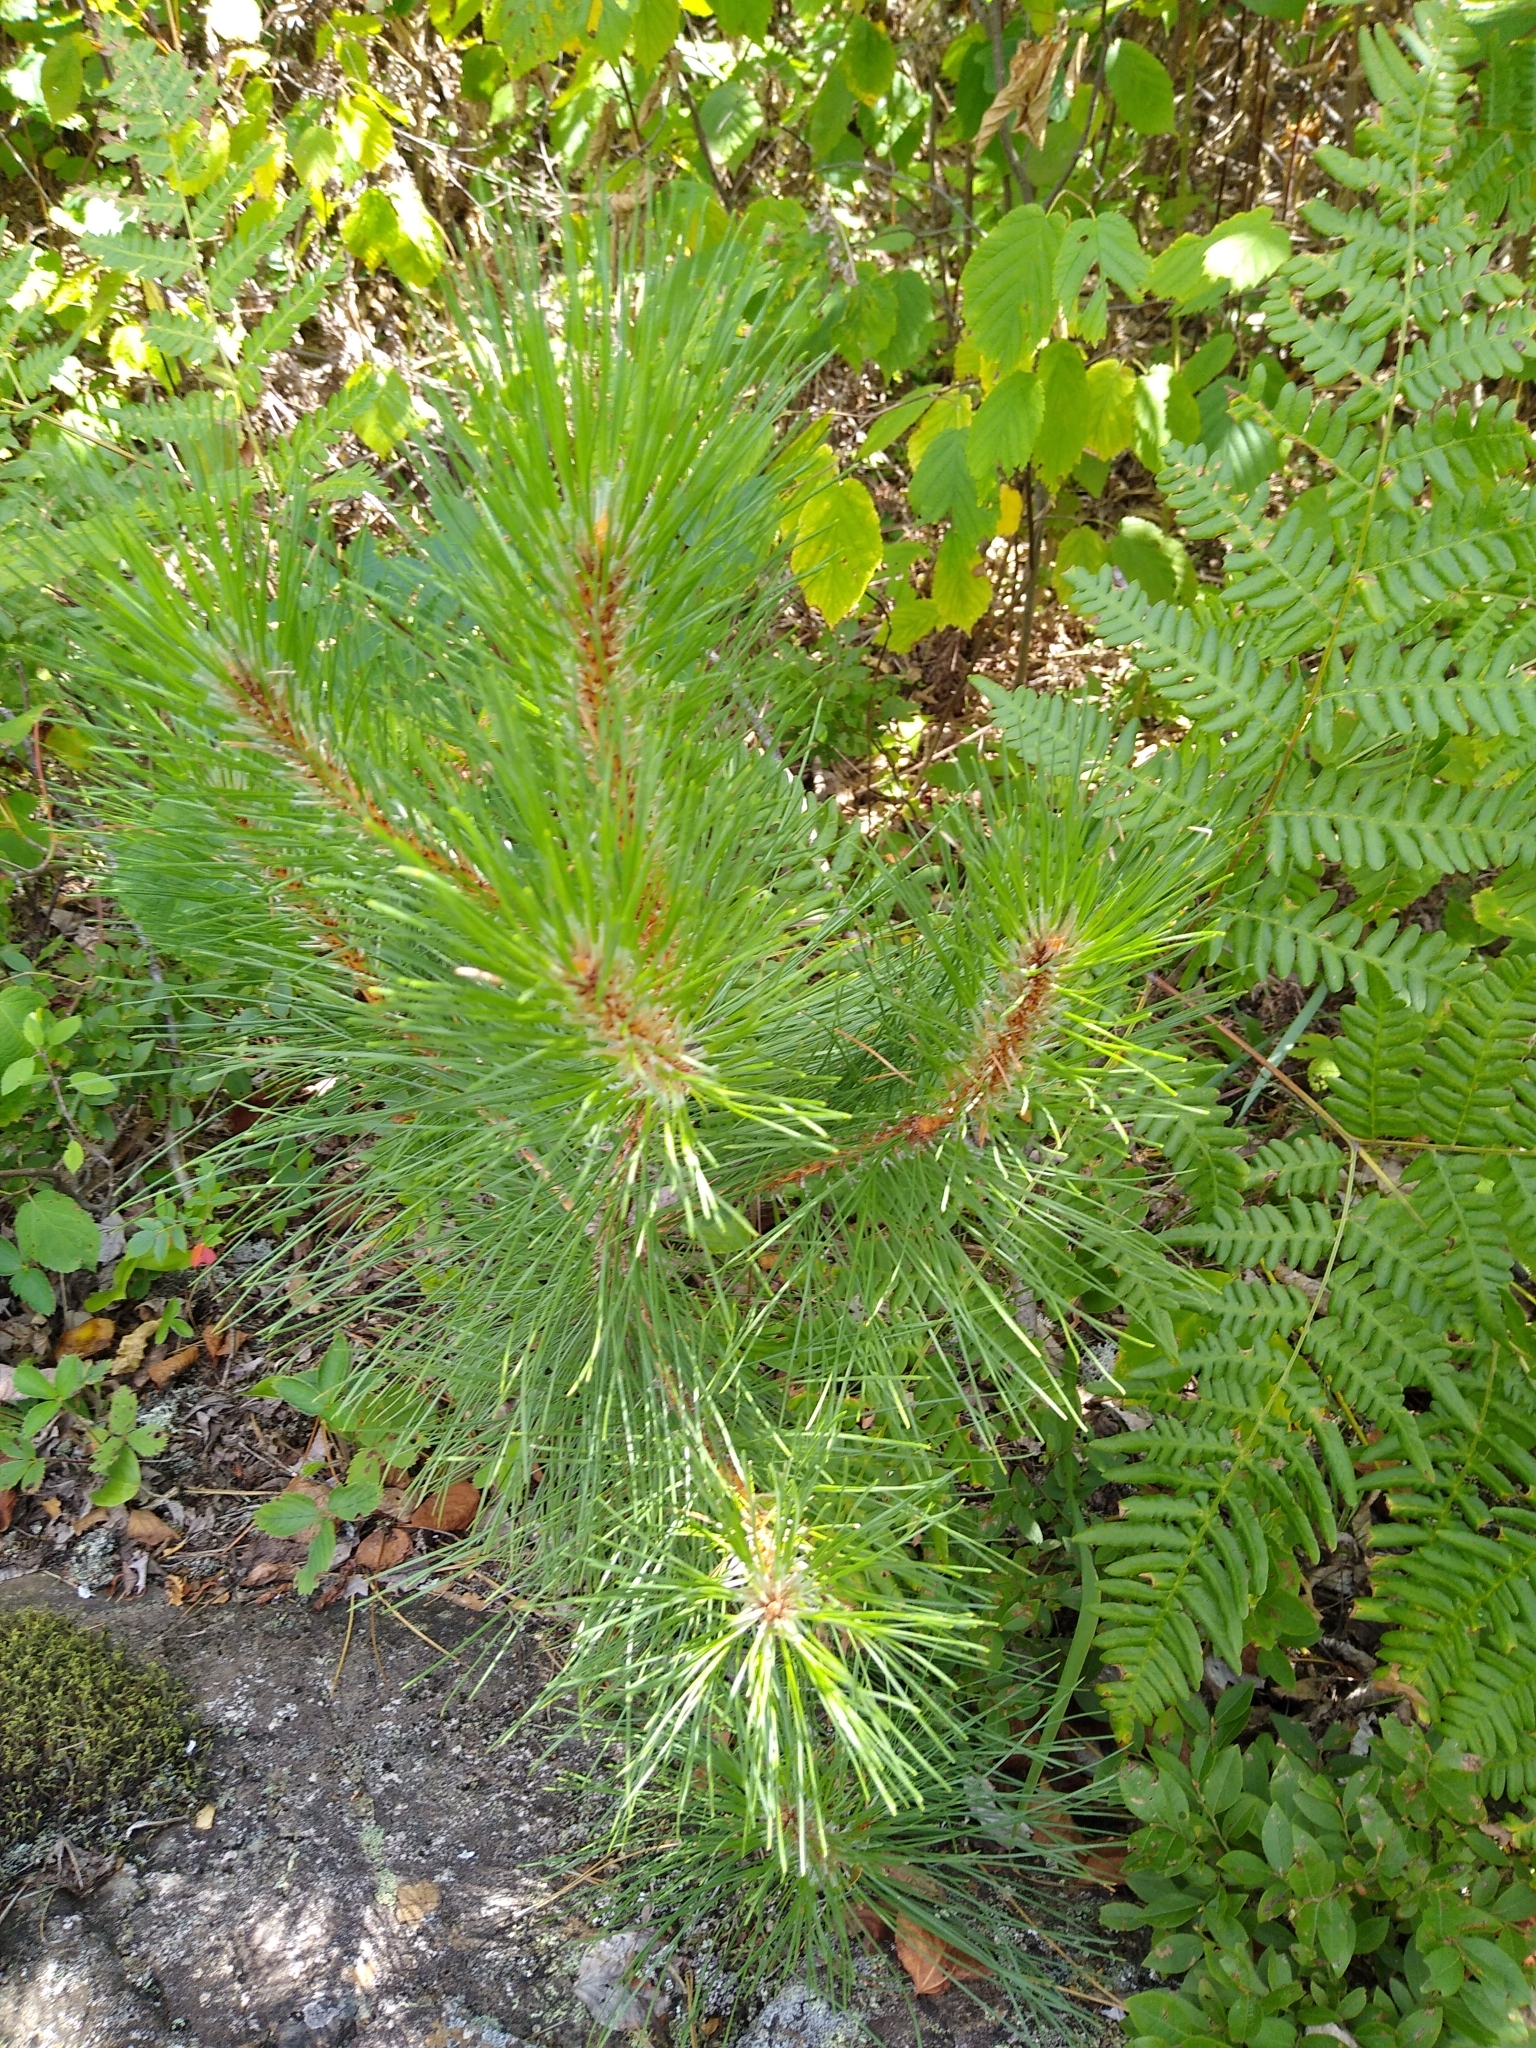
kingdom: Plantae
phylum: Tracheophyta
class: Pinopsida
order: Pinales
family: Pinaceae
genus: Pinus
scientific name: Pinus resinosa
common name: Norway pine
